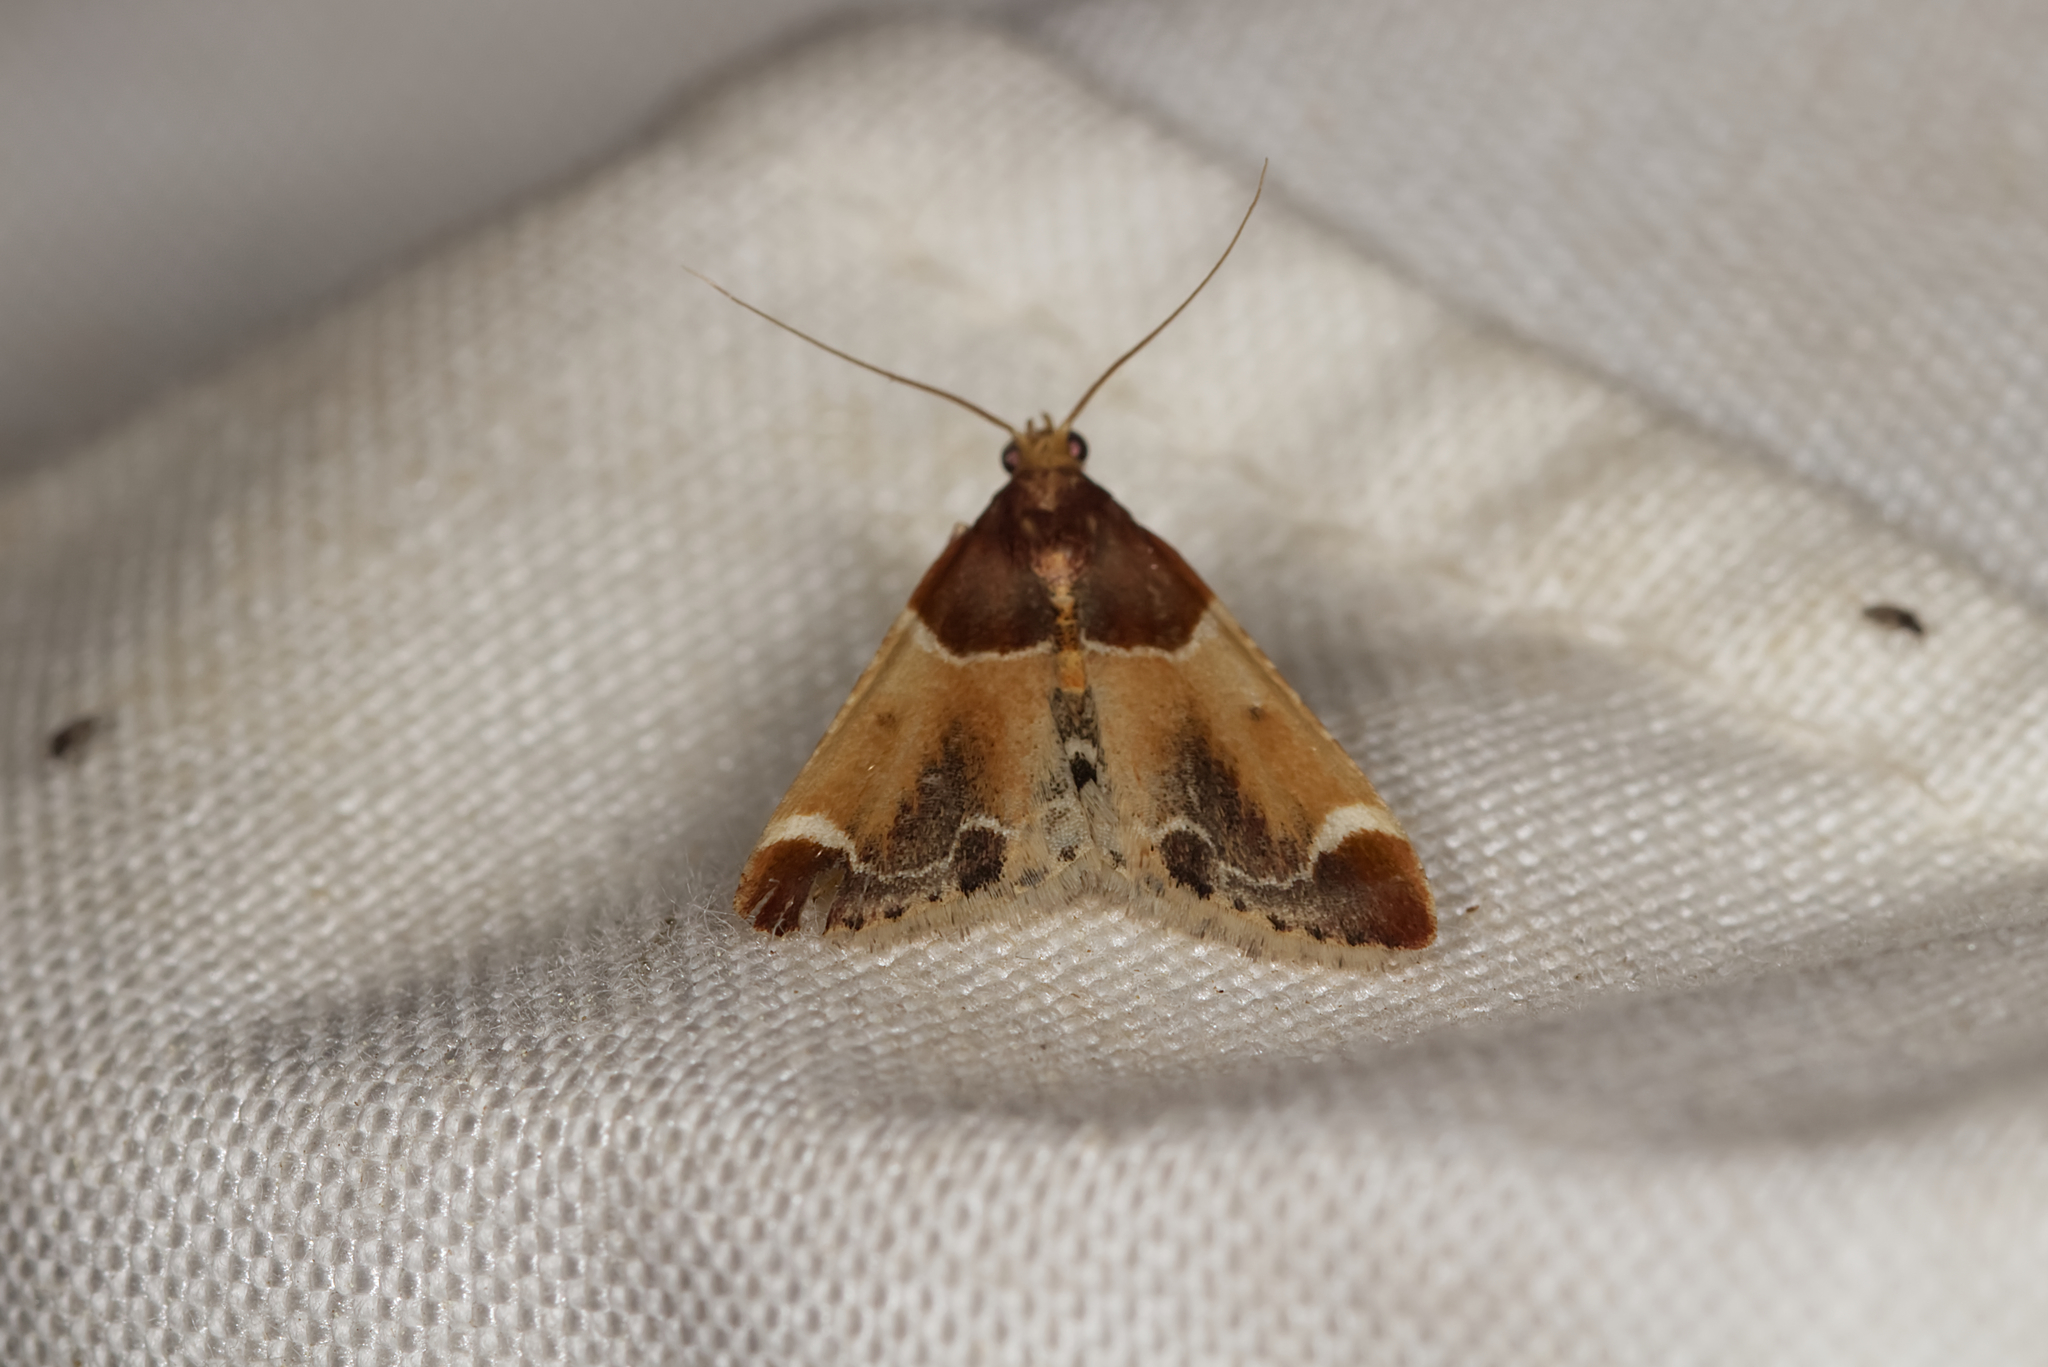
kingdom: Animalia
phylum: Arthropoda
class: Insecta
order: Lepidoptera
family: Pyralidae
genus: Pyralis
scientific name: Pyralis farinalis
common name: Meal moth
